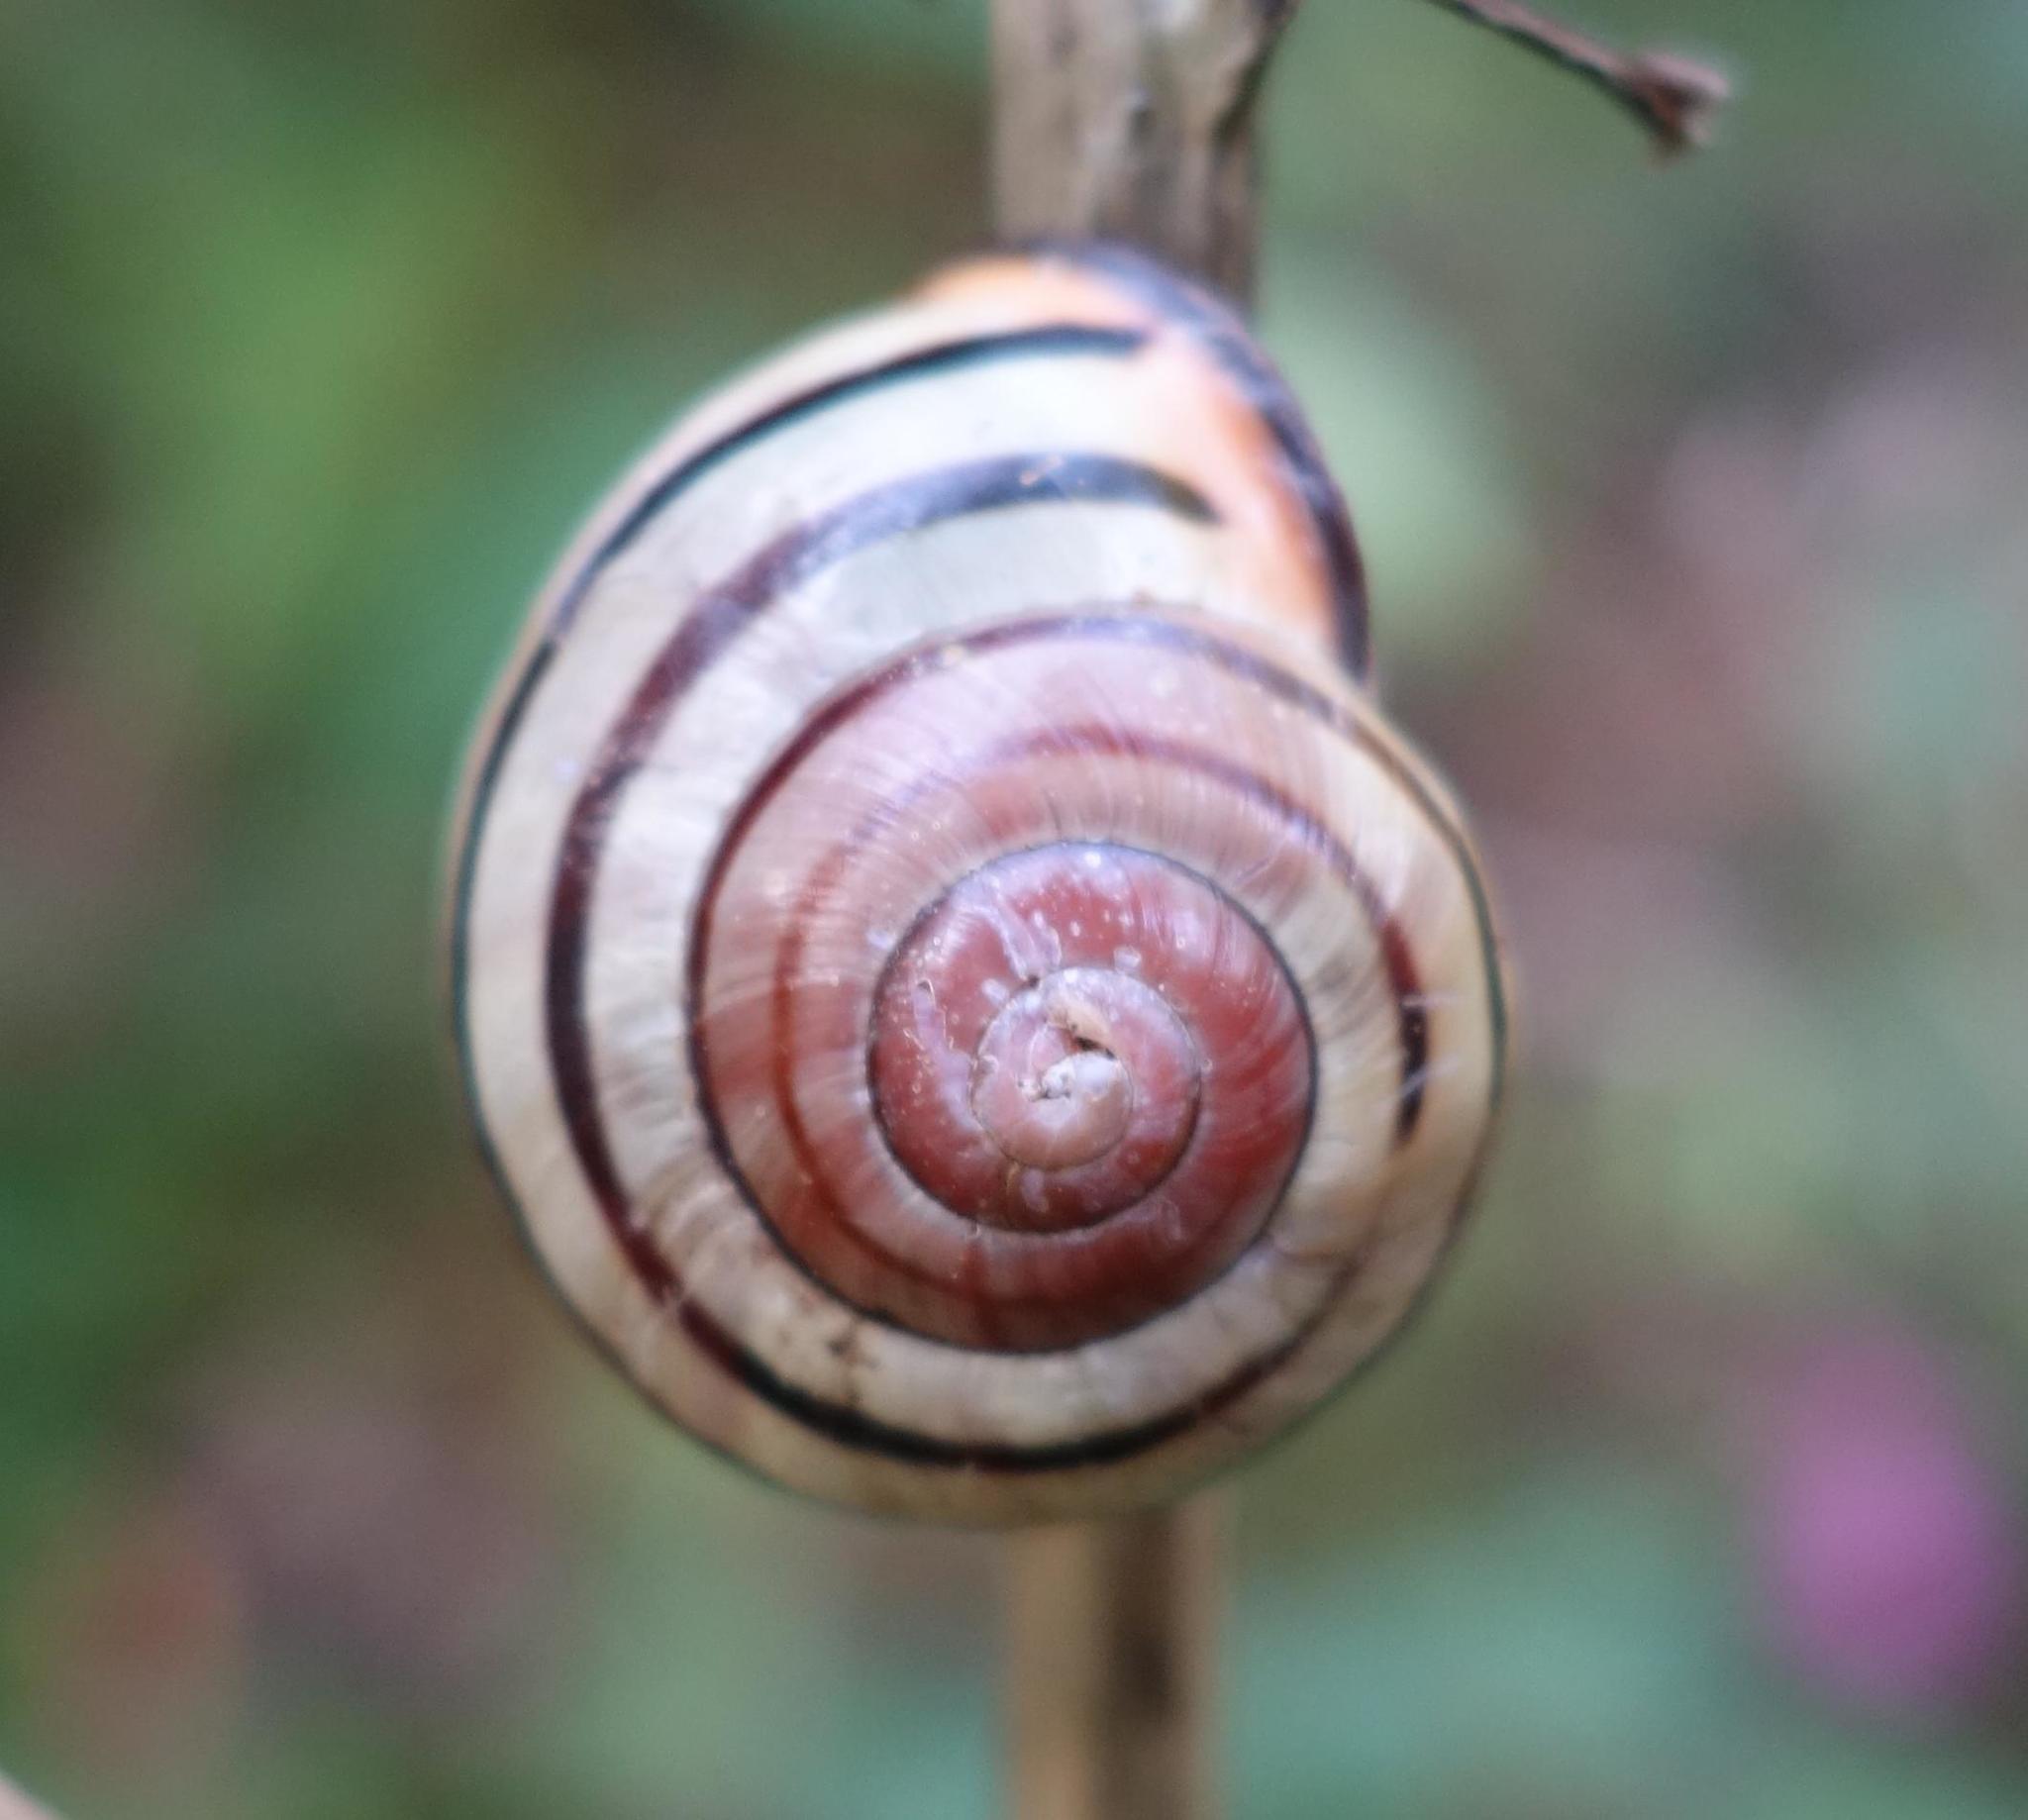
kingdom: Animalia
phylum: Mollusca
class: Gastropoda
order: Stylommatophora
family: Helicidae
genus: Cepaea
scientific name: Cepaea nemoralis
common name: Grovesnail
